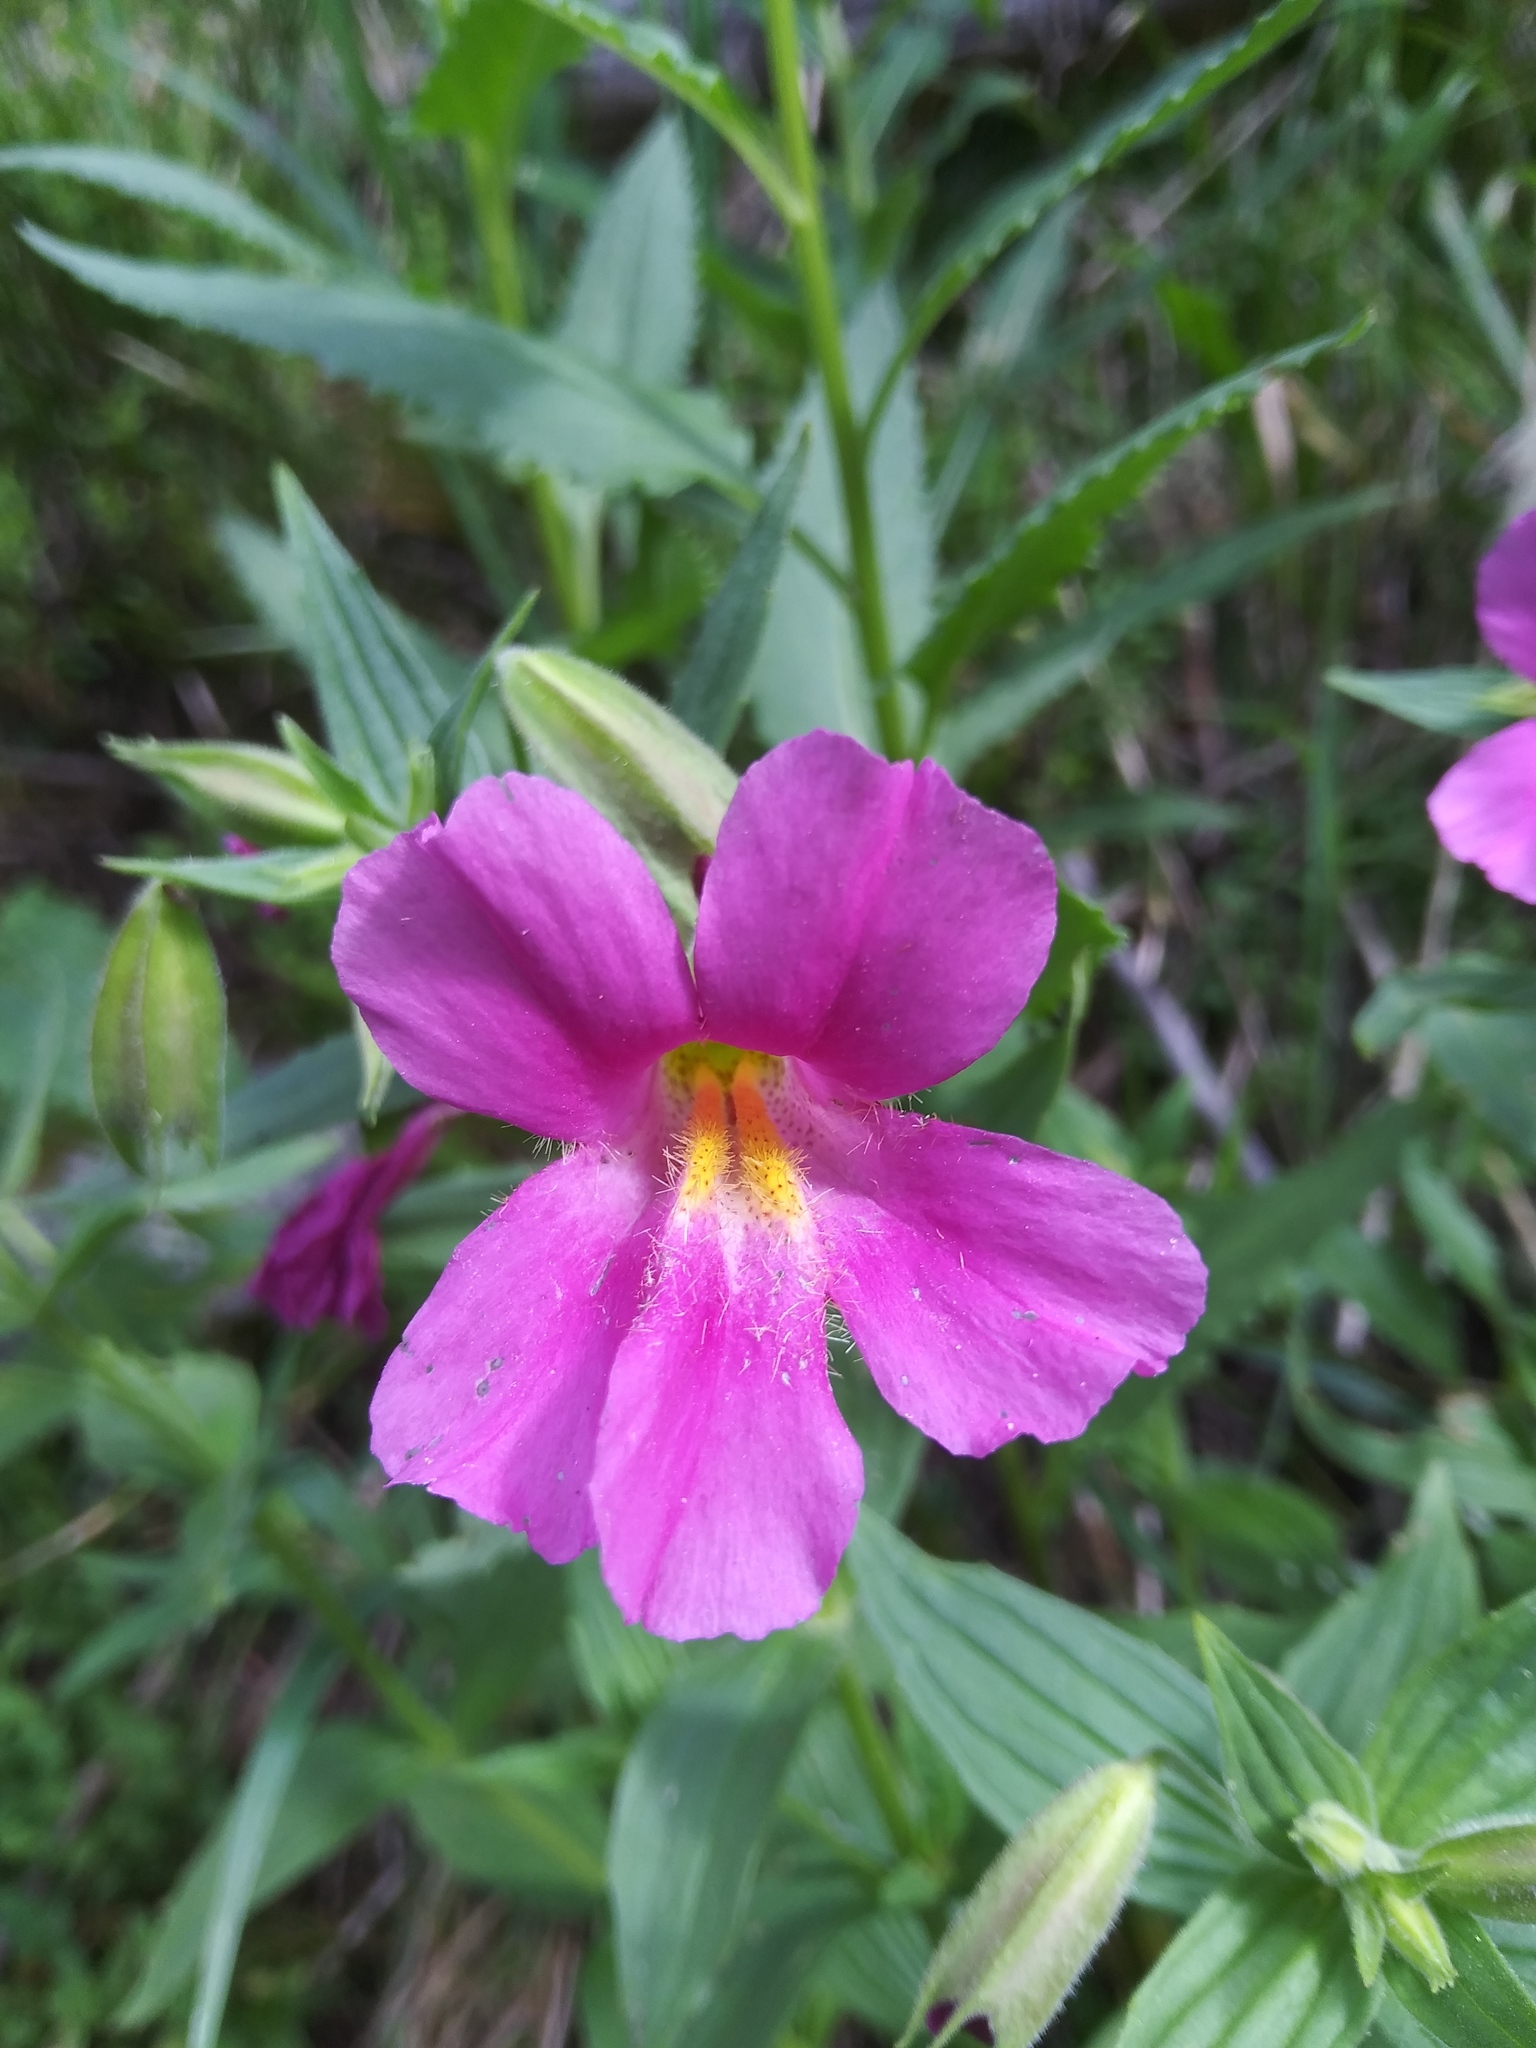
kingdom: Plantae
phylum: Tracheophyta
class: Magnoliopsida
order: Lamiales
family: Phrymaceae
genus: Erythranthe
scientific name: Erythranthe lewisii
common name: Lewis's monkey-flower
